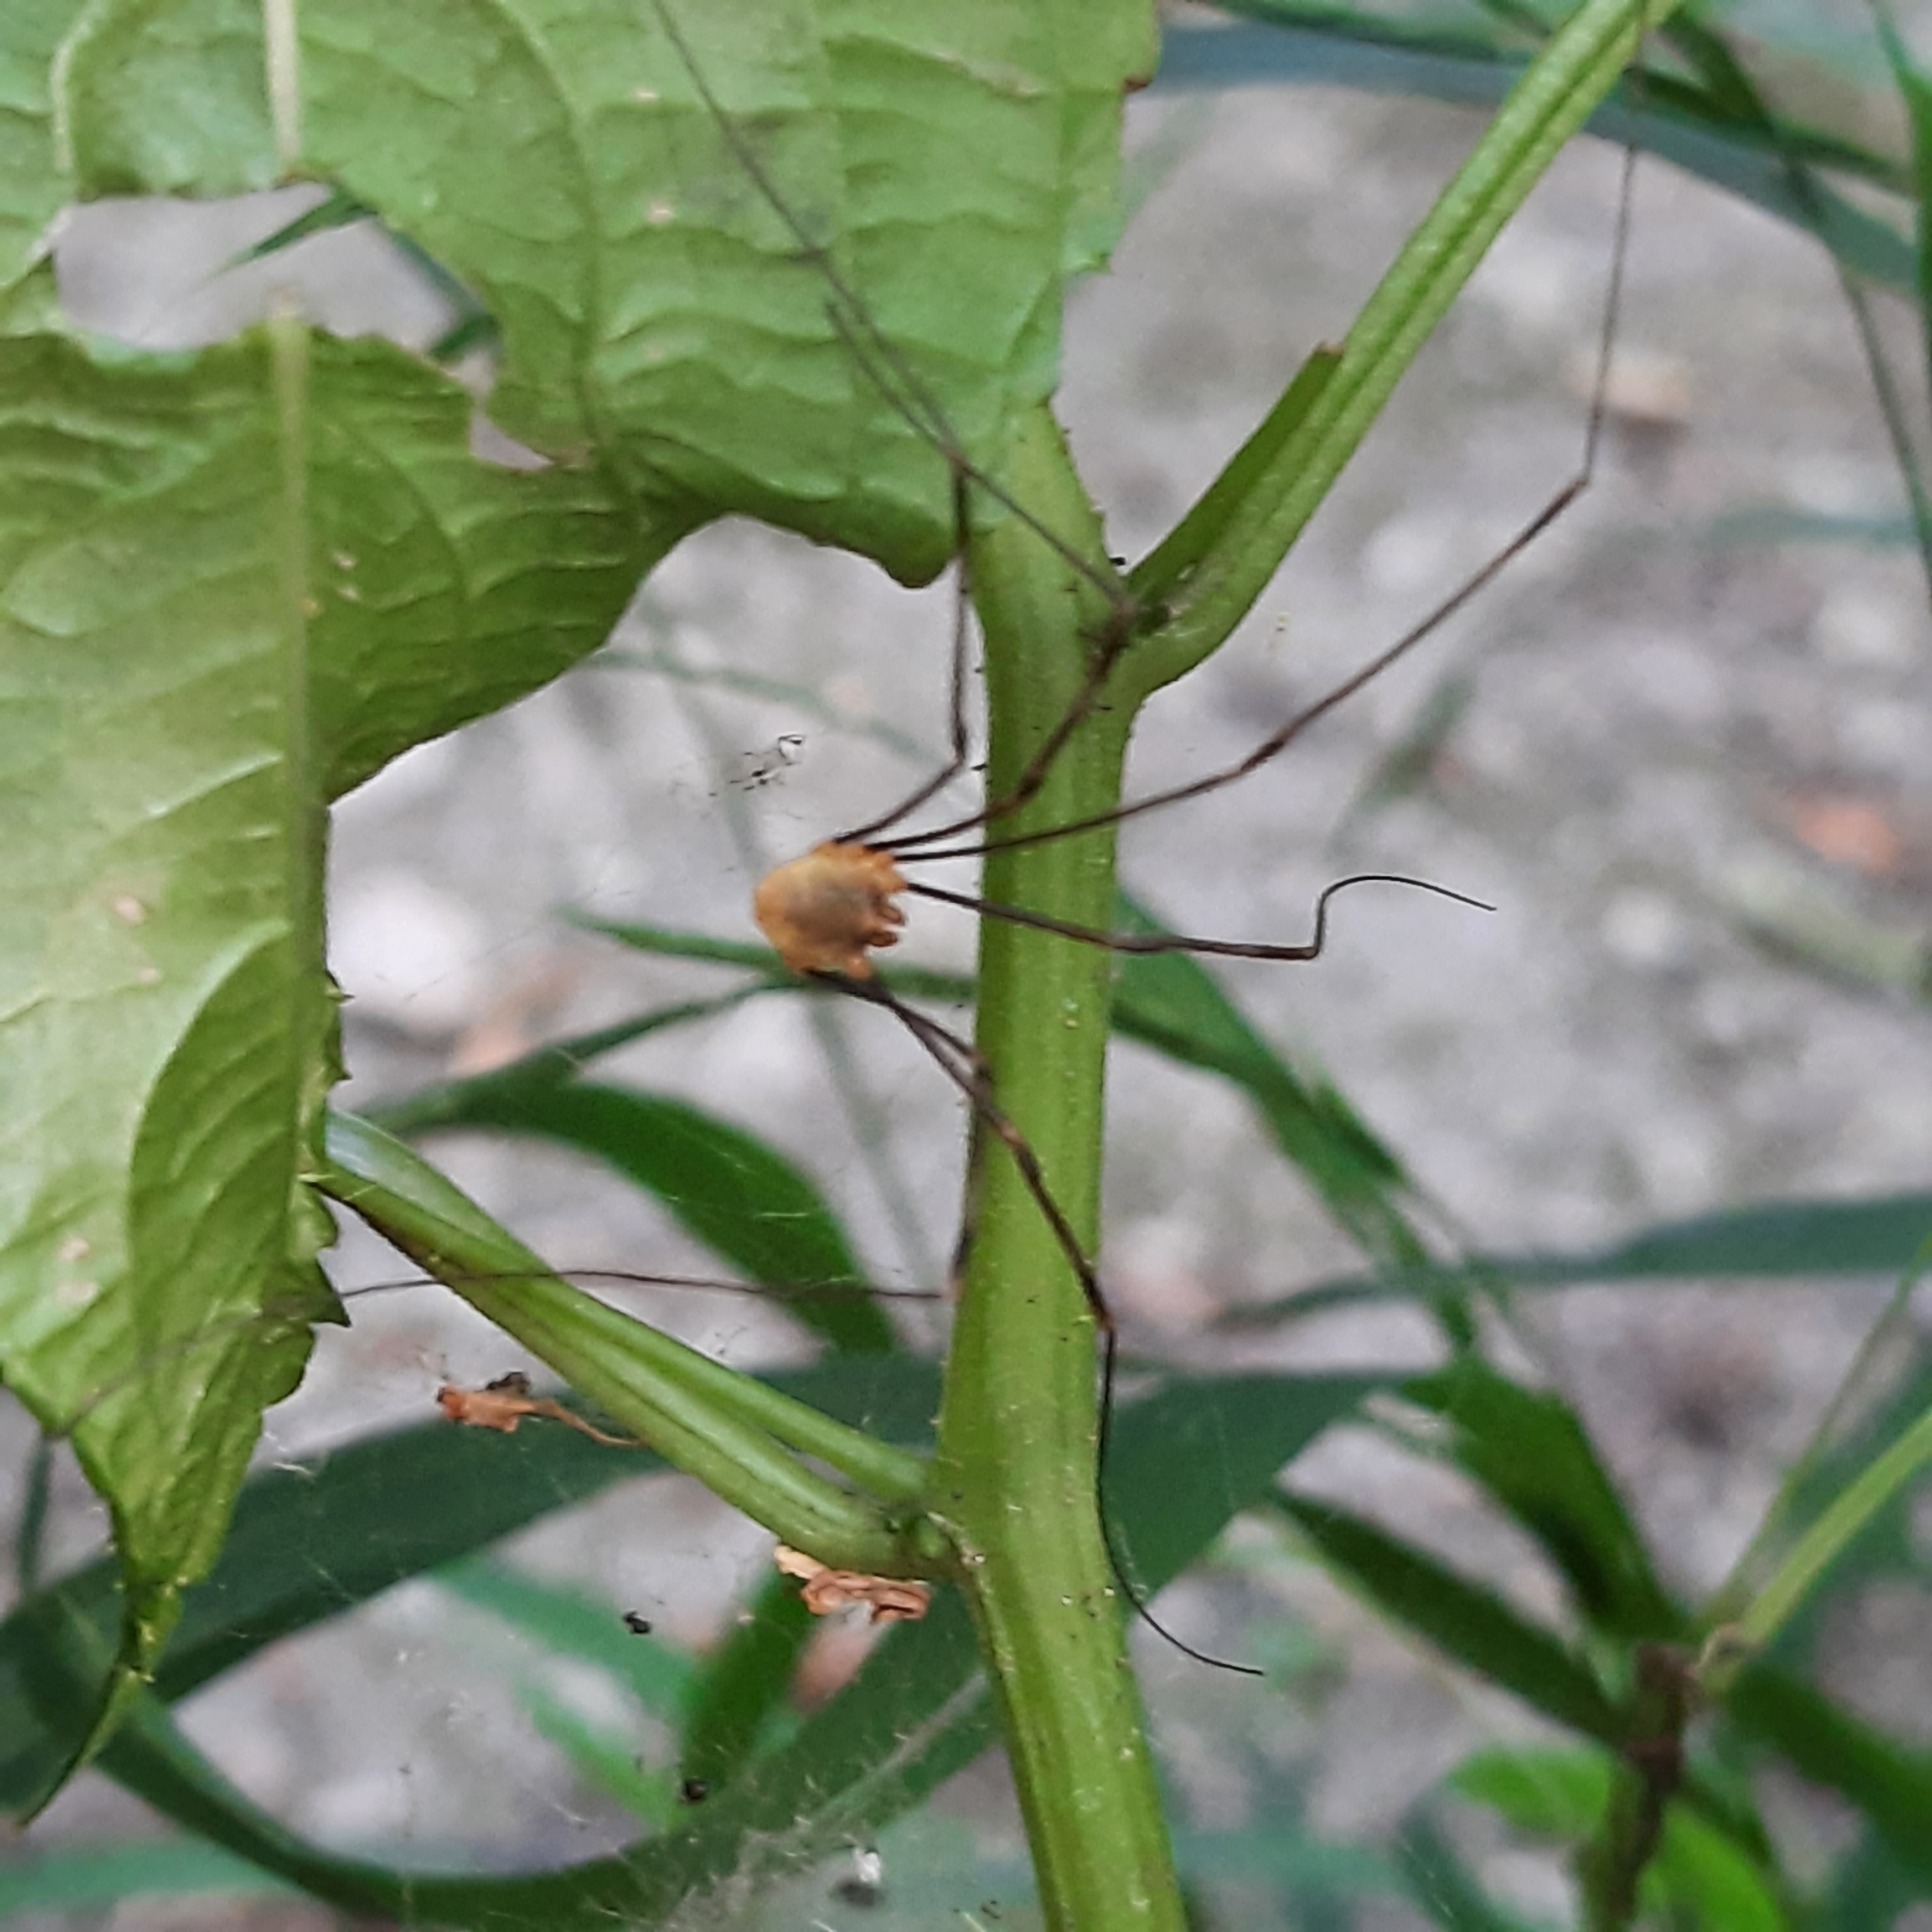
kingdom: Animalia
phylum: Arthropoda
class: Arachnida
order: Opiliones
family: Phalangiidae
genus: Opilio
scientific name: Opilio canestrinii
